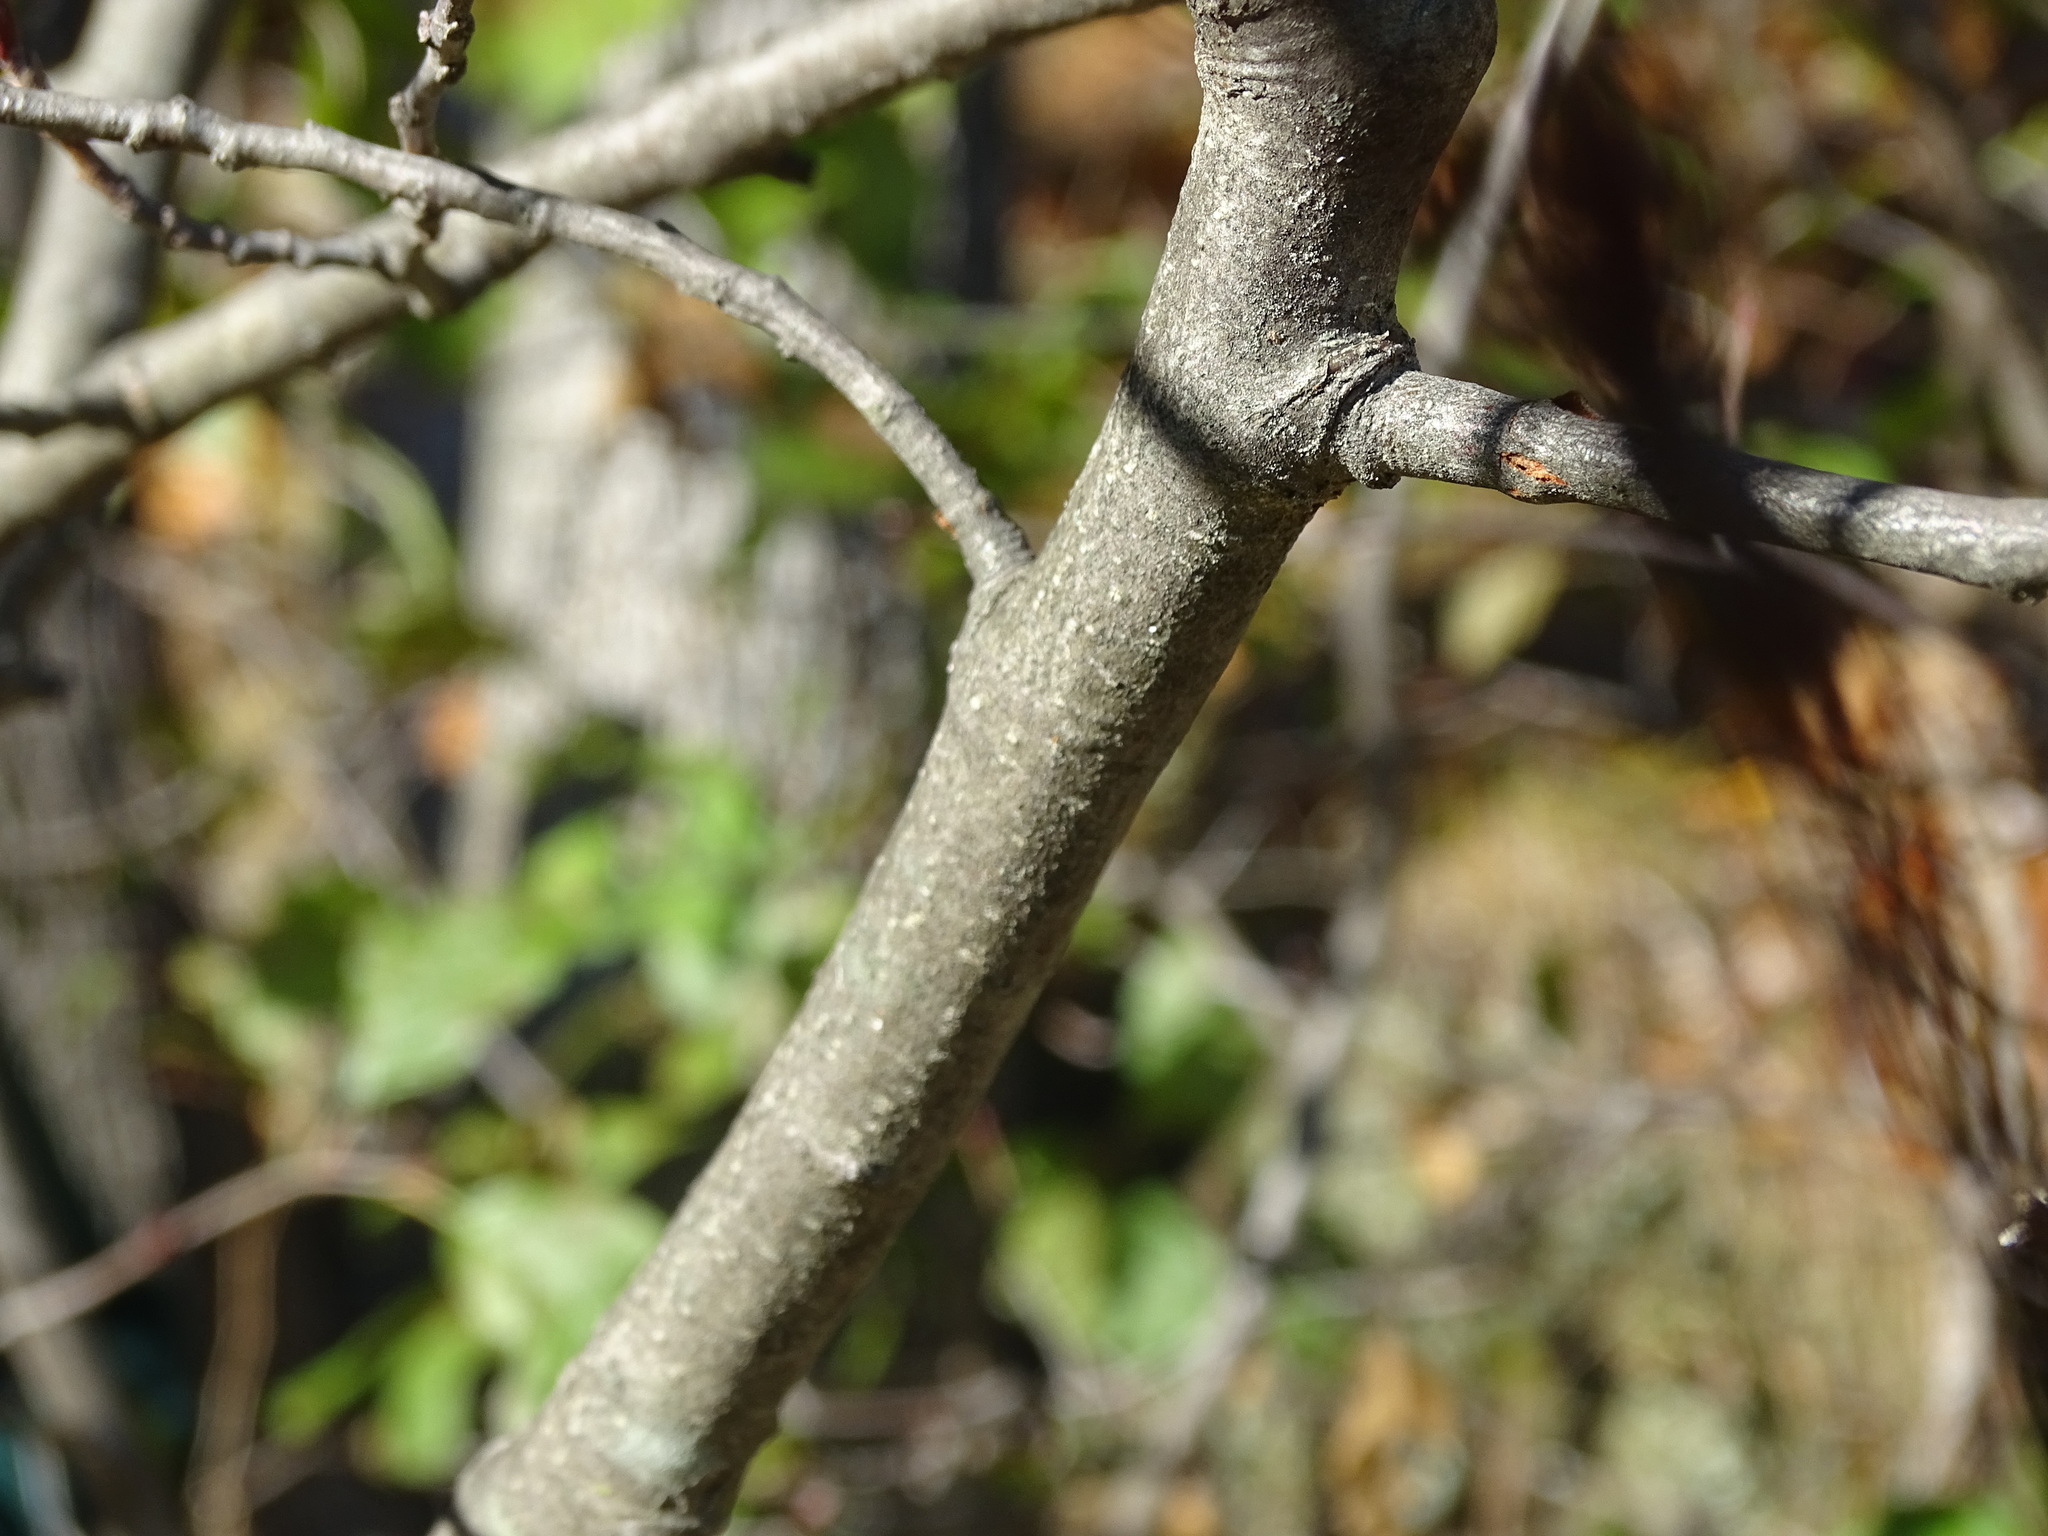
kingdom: Plantae
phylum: Tracheophyta
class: Magnoliopsida
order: Fagales
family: Betulaceae
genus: Alnus
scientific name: Alnus incana
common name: Grey alder
